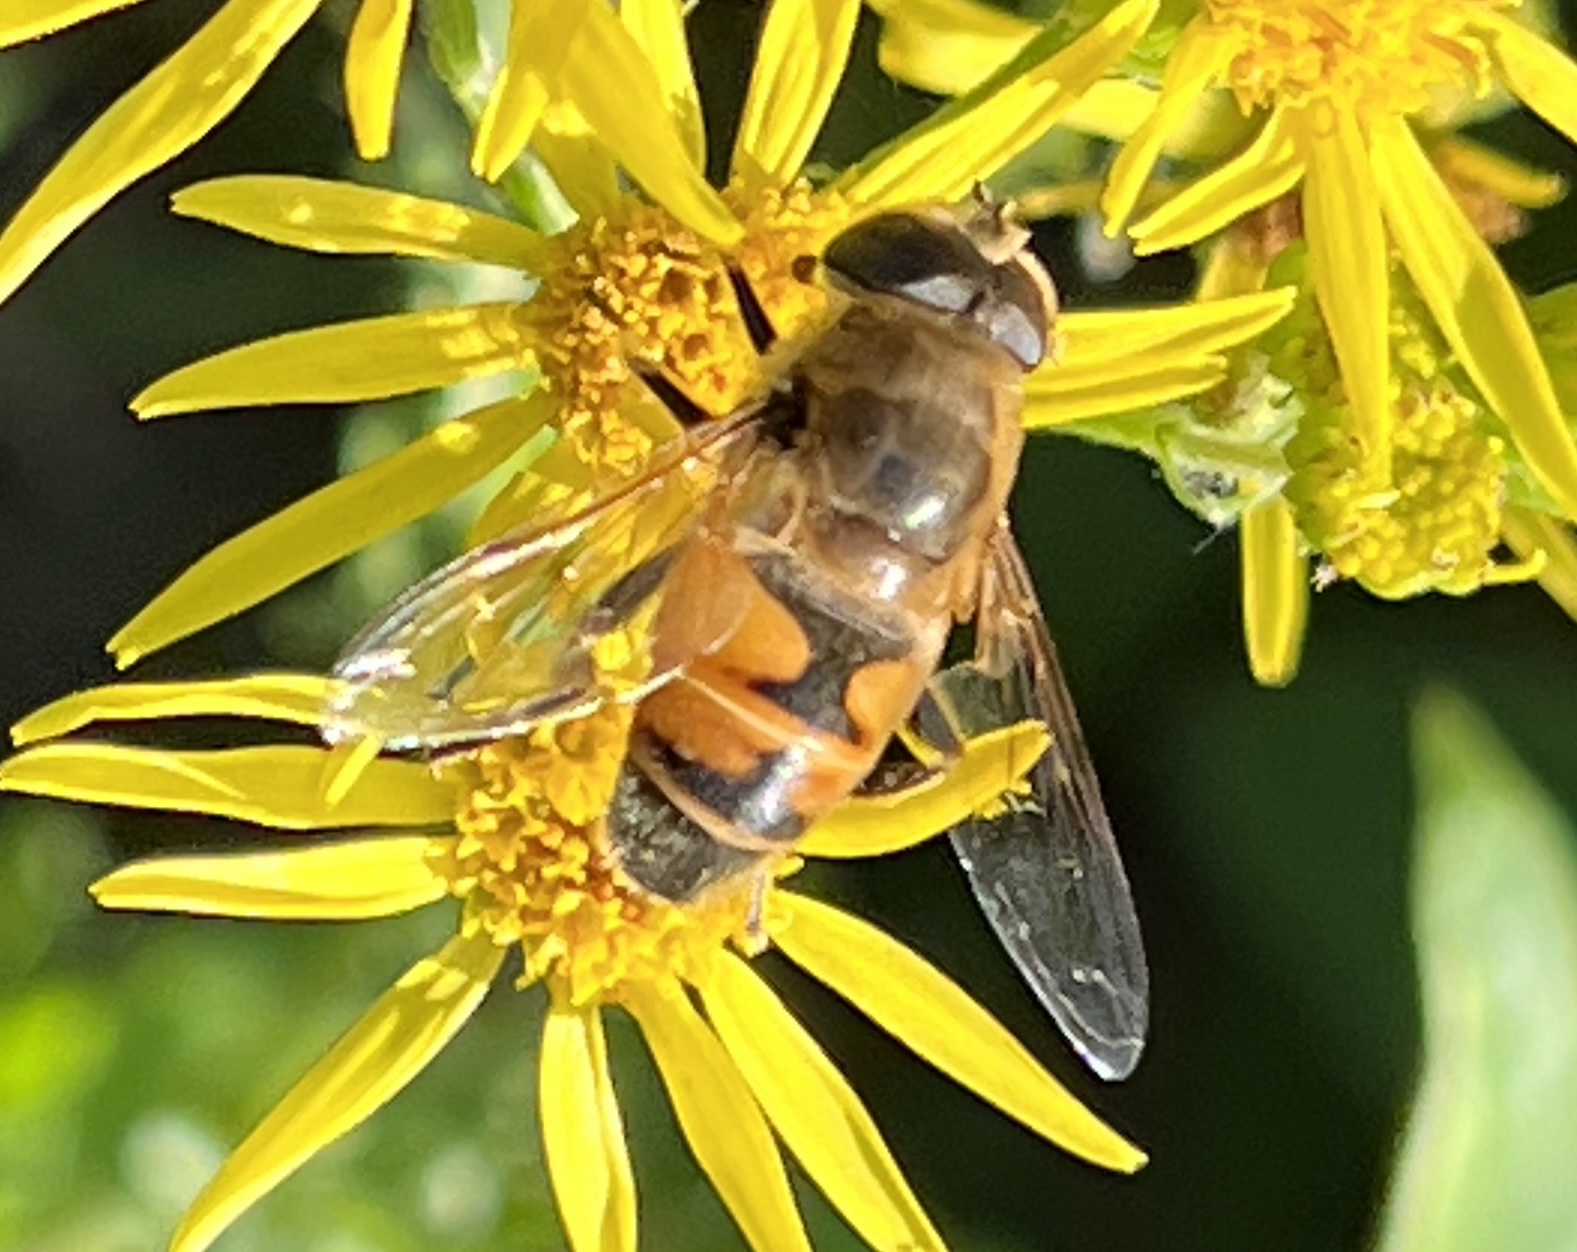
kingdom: Animalia
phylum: Arthropoda
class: Insecta
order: Diptera
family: Syrphidae
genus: Eristalis
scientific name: Eristalis tenax
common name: Drone fly
